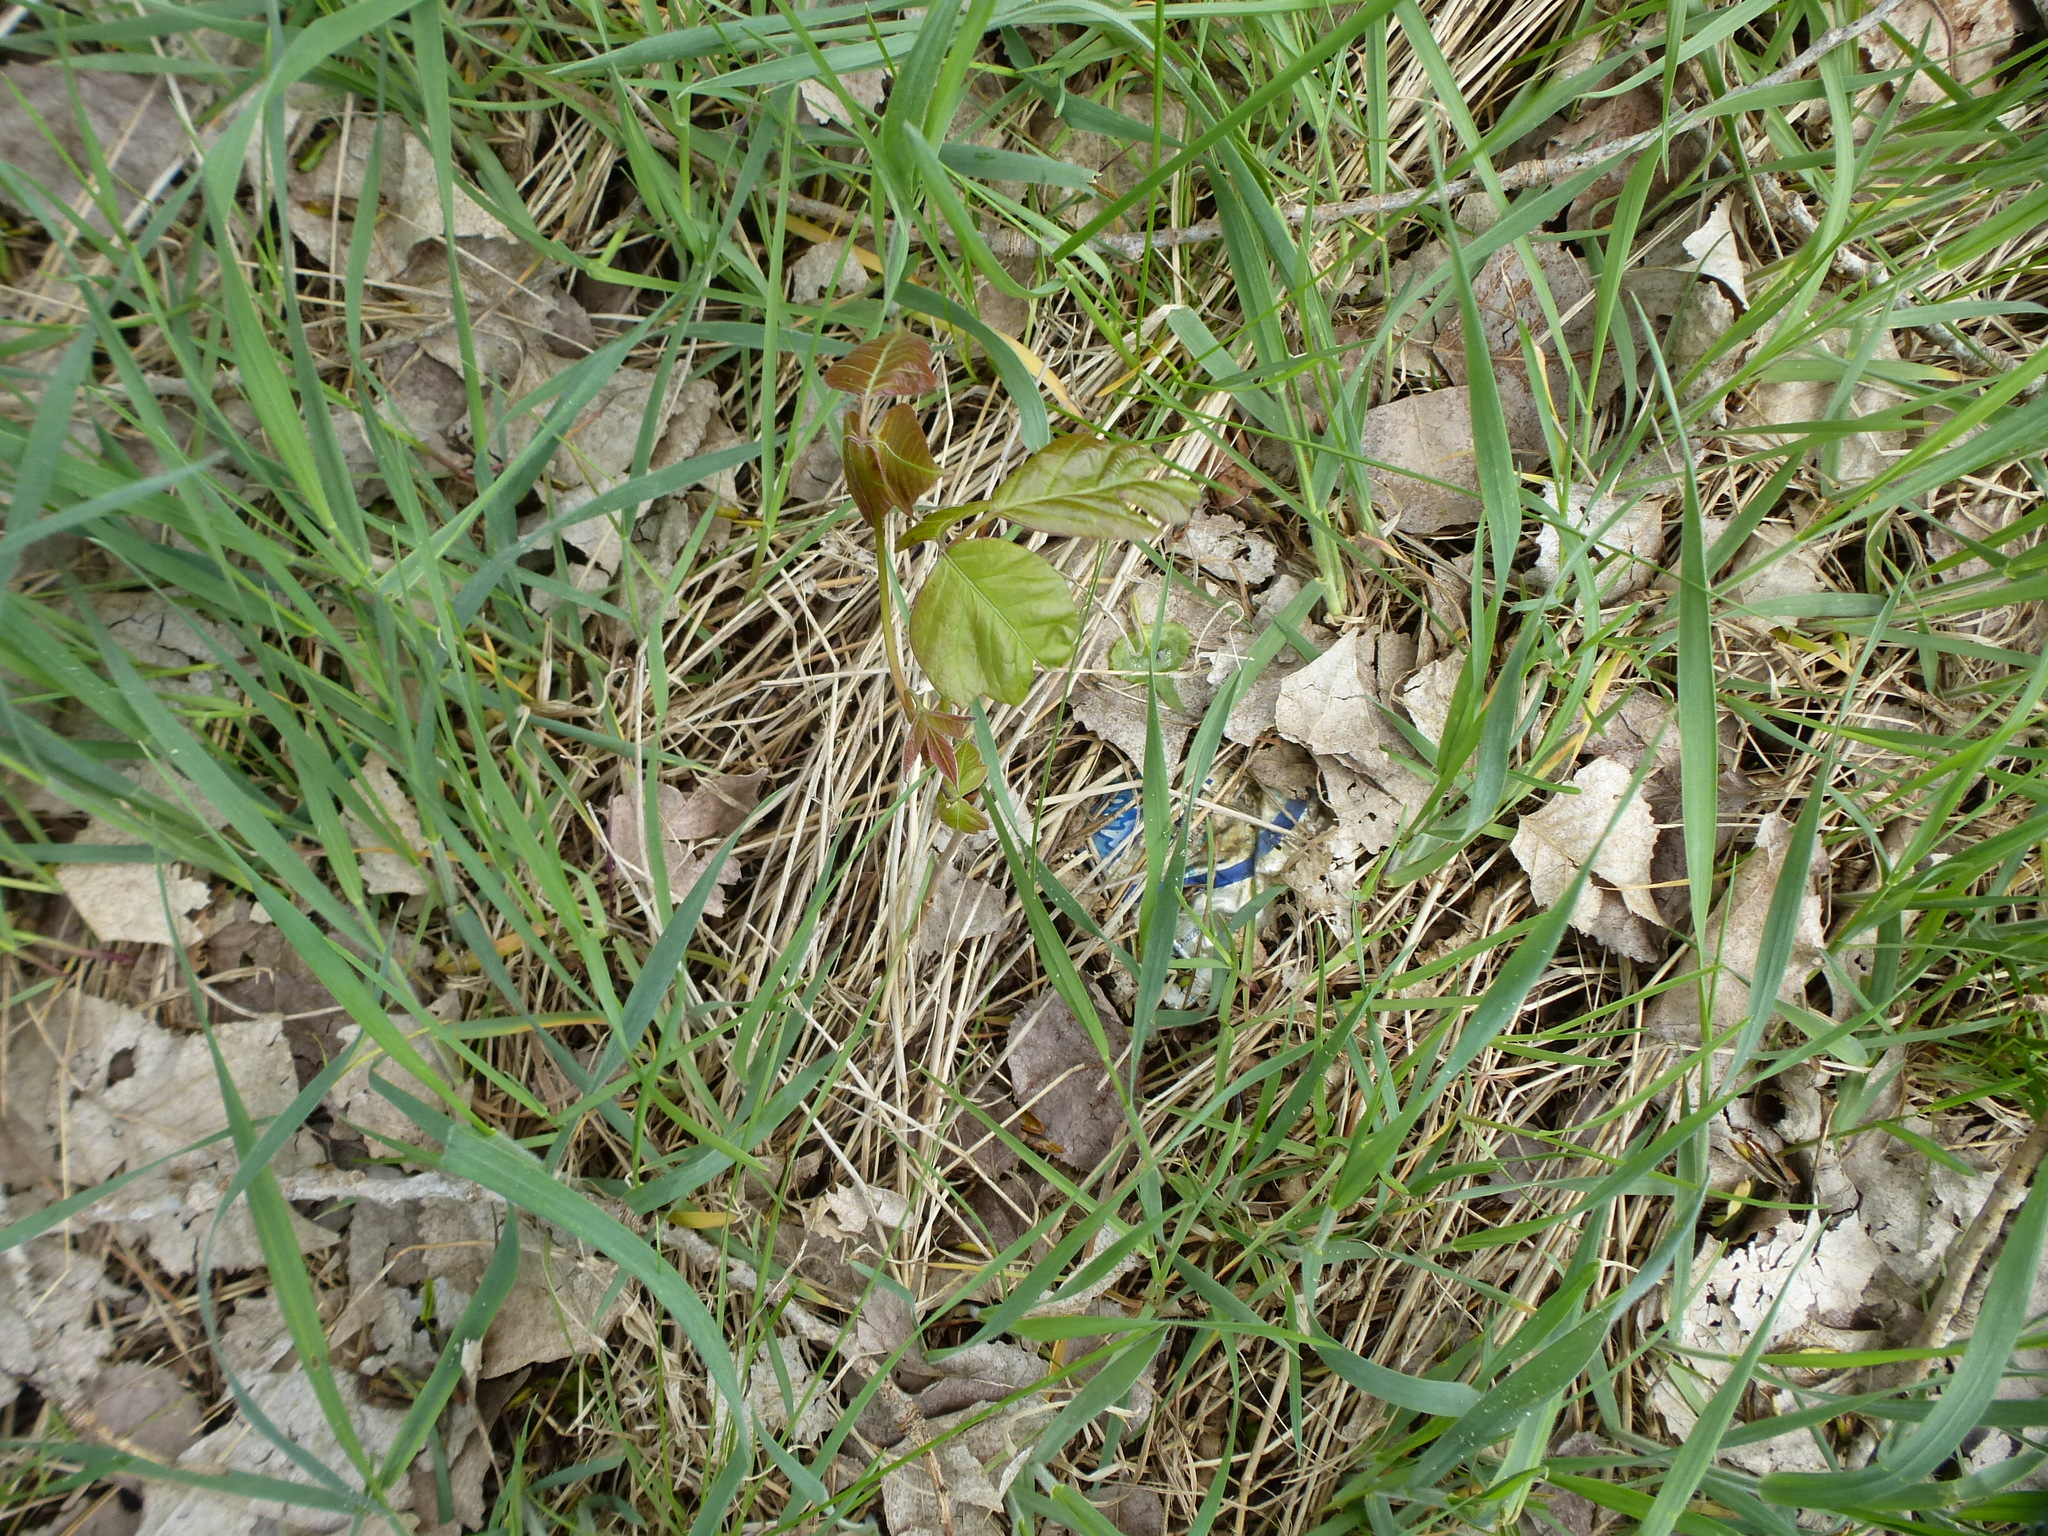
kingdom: Plantae
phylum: Tracheophyta
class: Magnoliopsida
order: Sapindales
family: Anacardiaceae
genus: Toxicodendron
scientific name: Toxicodendron radicans
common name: Poison ivy
